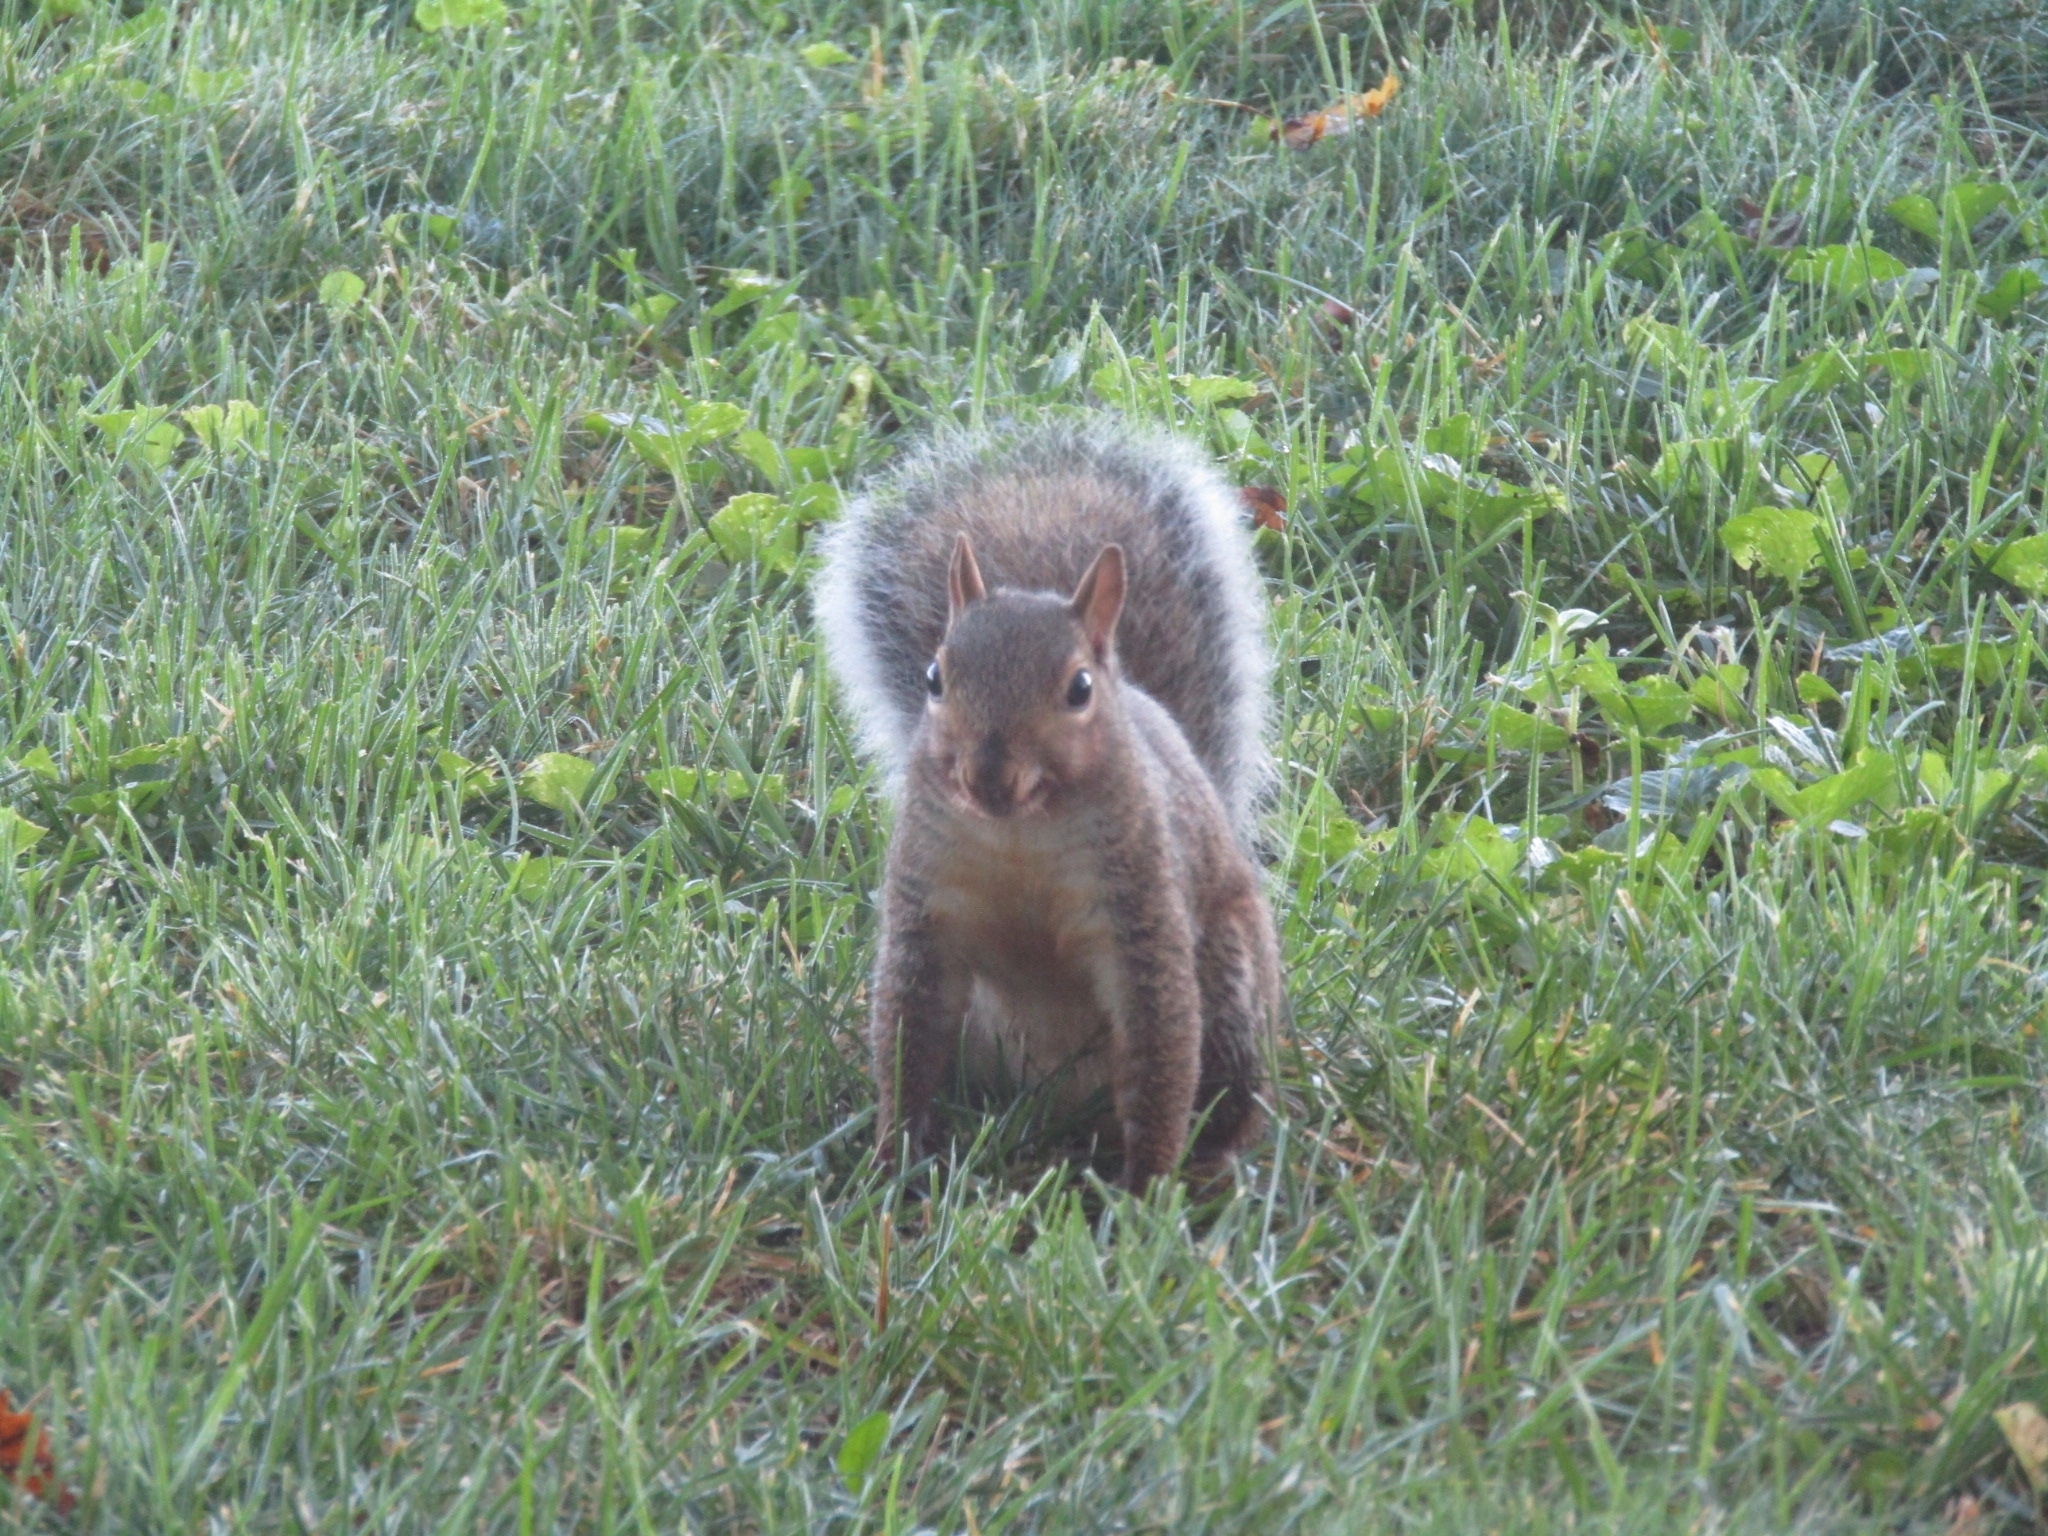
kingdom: Animalia
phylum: Chordata
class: Mammalia
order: Rodentia
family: Sciuridae
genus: Sciurus
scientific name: Sciurus carolinensis
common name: Eastern gray squirrel
